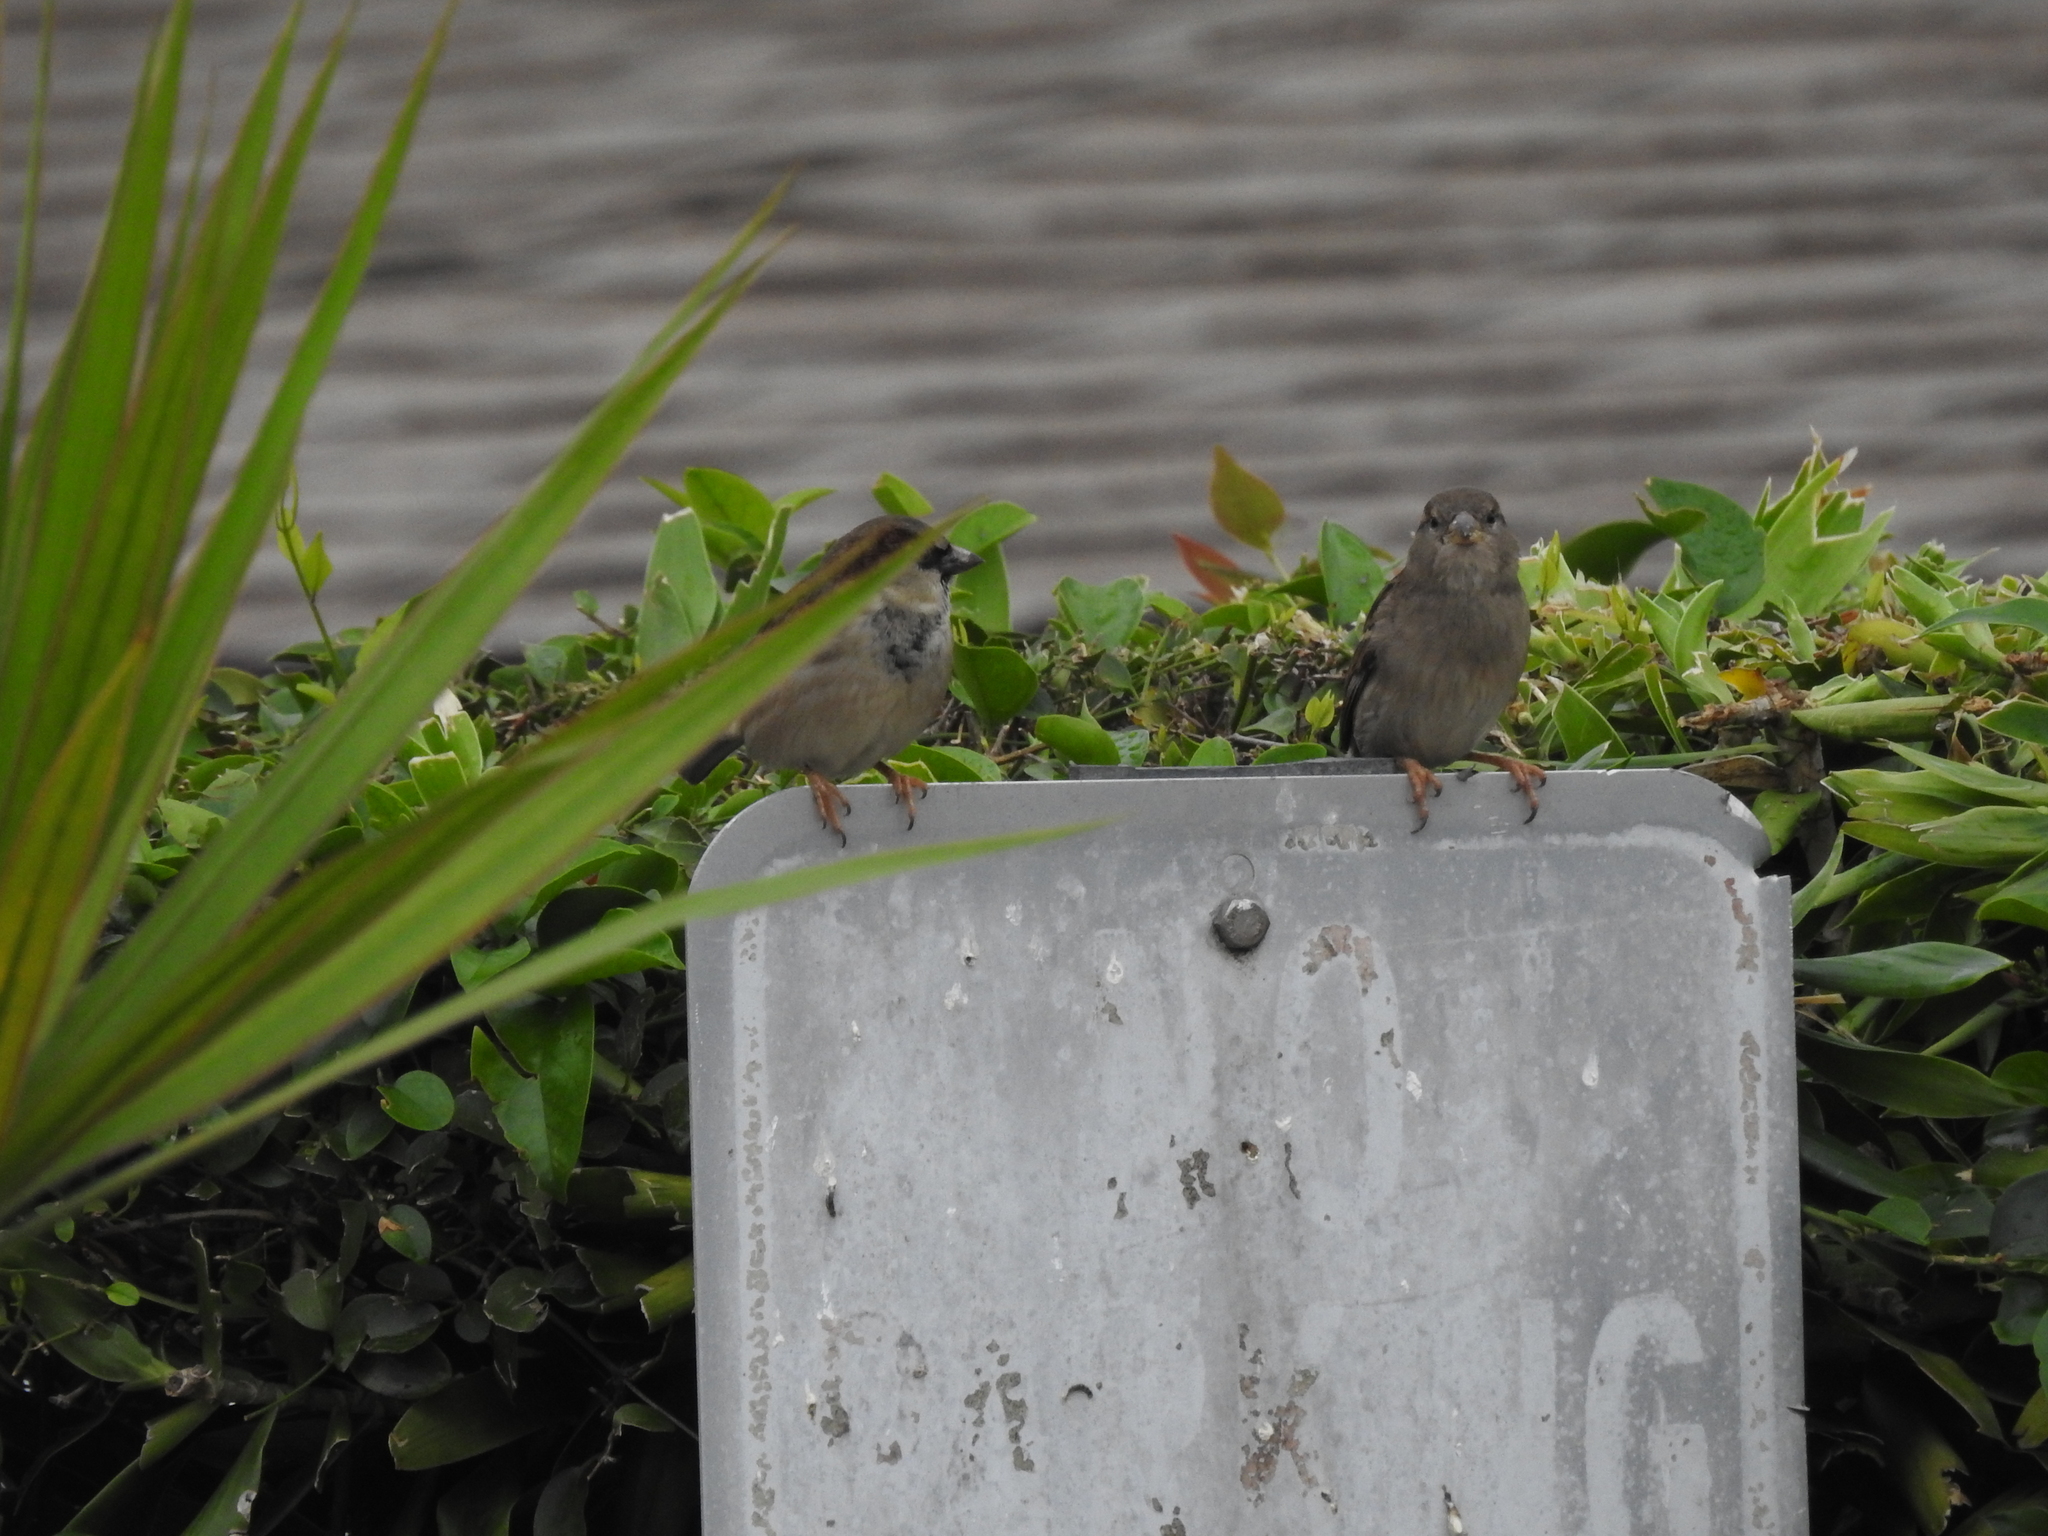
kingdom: Animalia
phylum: Chordata
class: Aves
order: Passeriformes
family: Passeridae
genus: Passer
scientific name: Passer domesticus
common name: House sparrow
